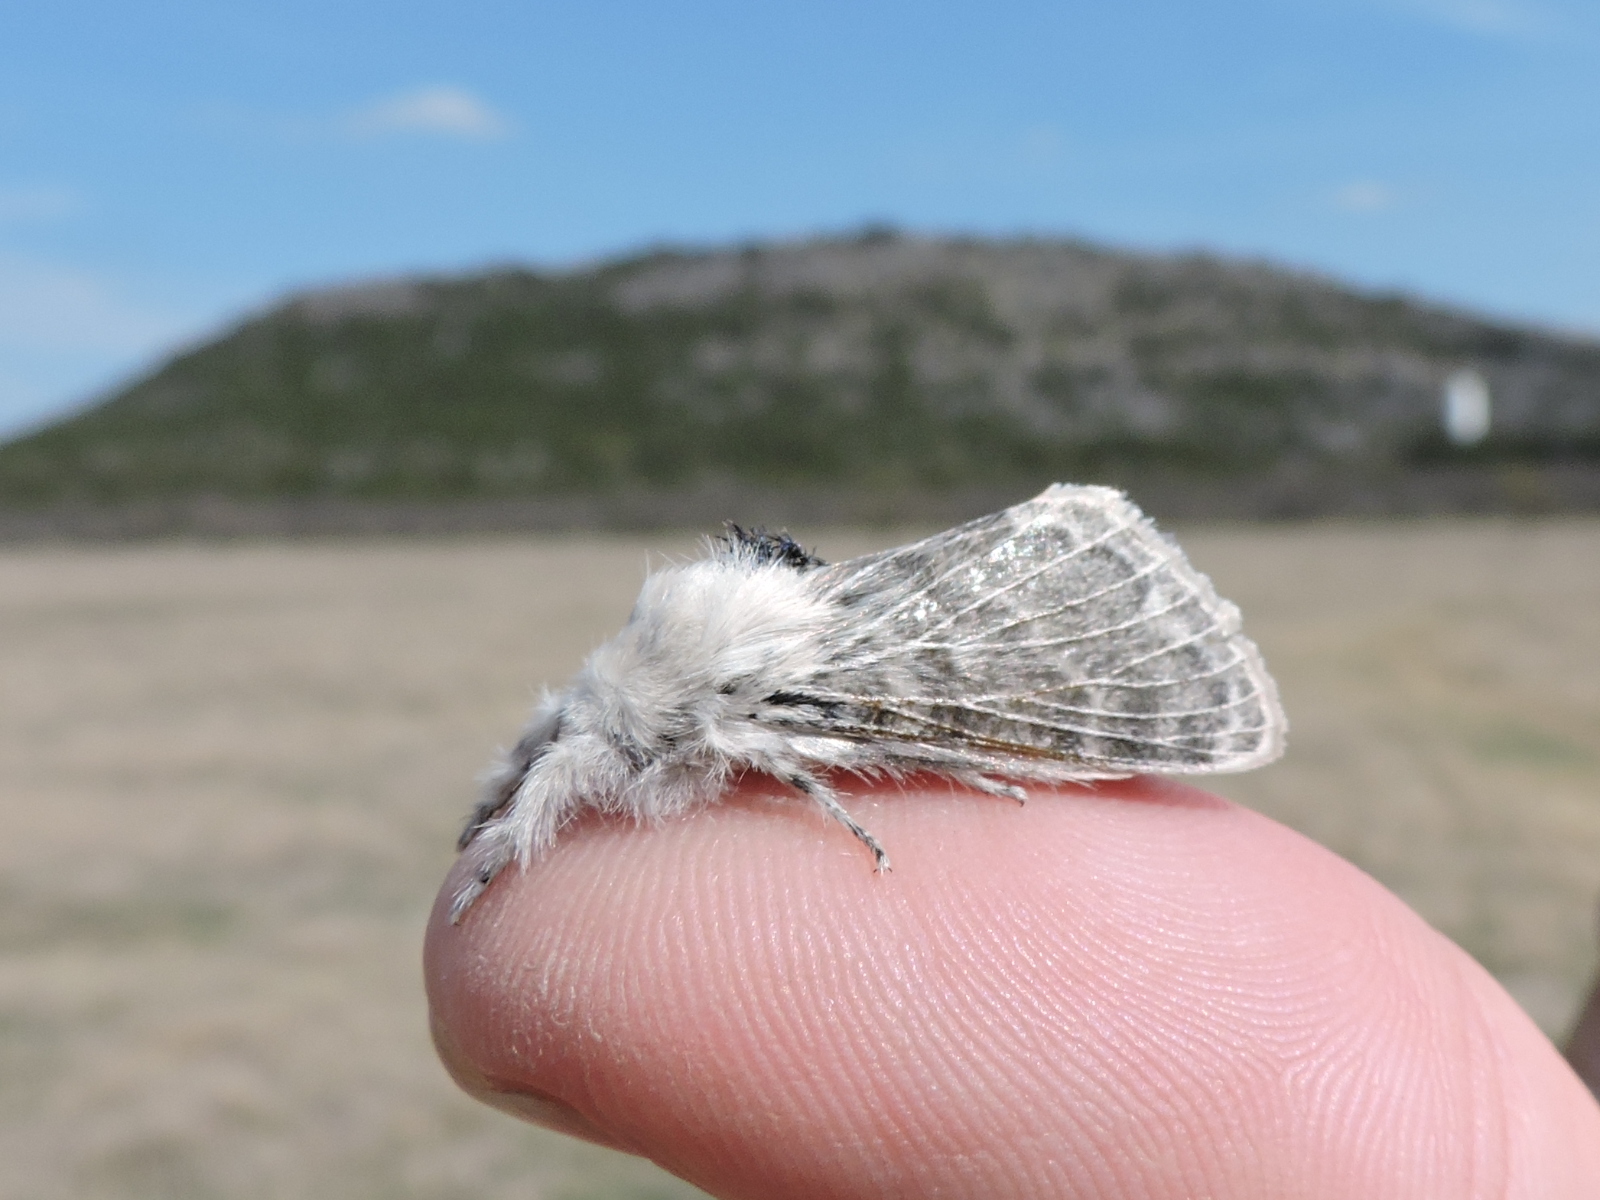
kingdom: Animalia
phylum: Arthropoda
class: Insecta
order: Lepidoptera
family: Lasiocampidae
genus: Tolype
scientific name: Tolype velleda
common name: Large tolype moth
